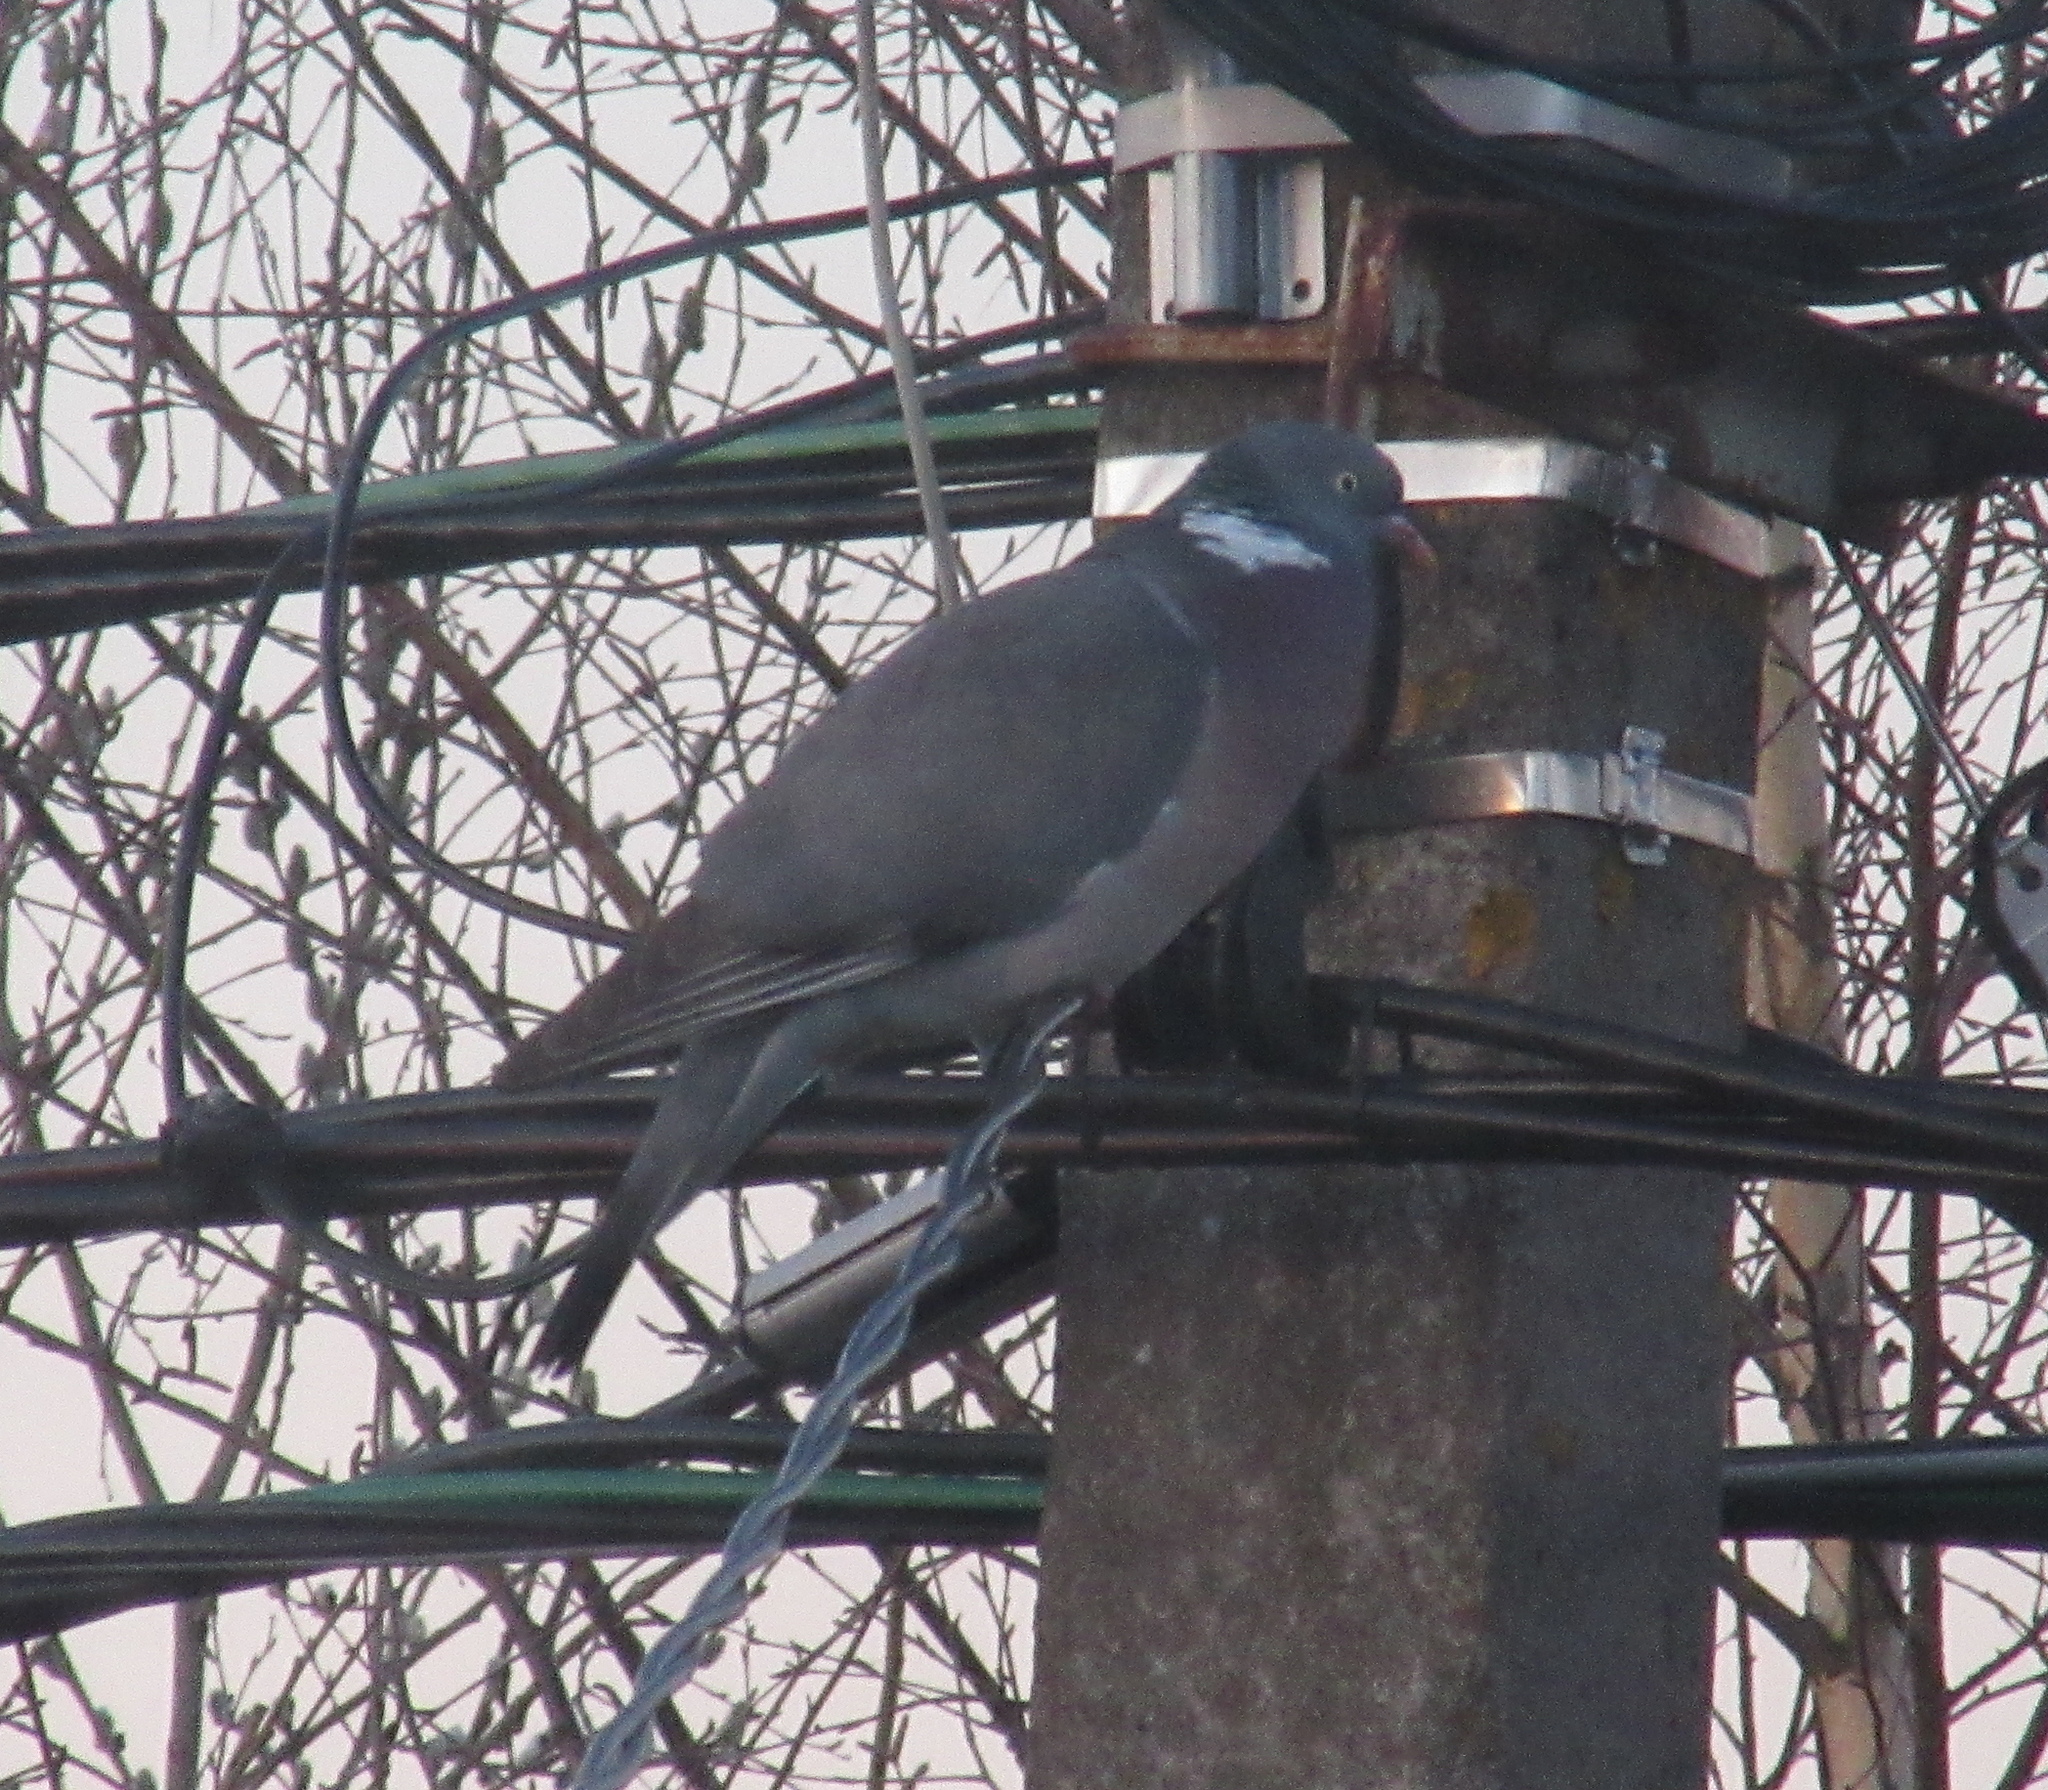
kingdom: Animalia
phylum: Chordata
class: Aves
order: Columbiformes
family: Columbidae
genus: Columba
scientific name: Columba palumbus
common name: Common wood pigeon
